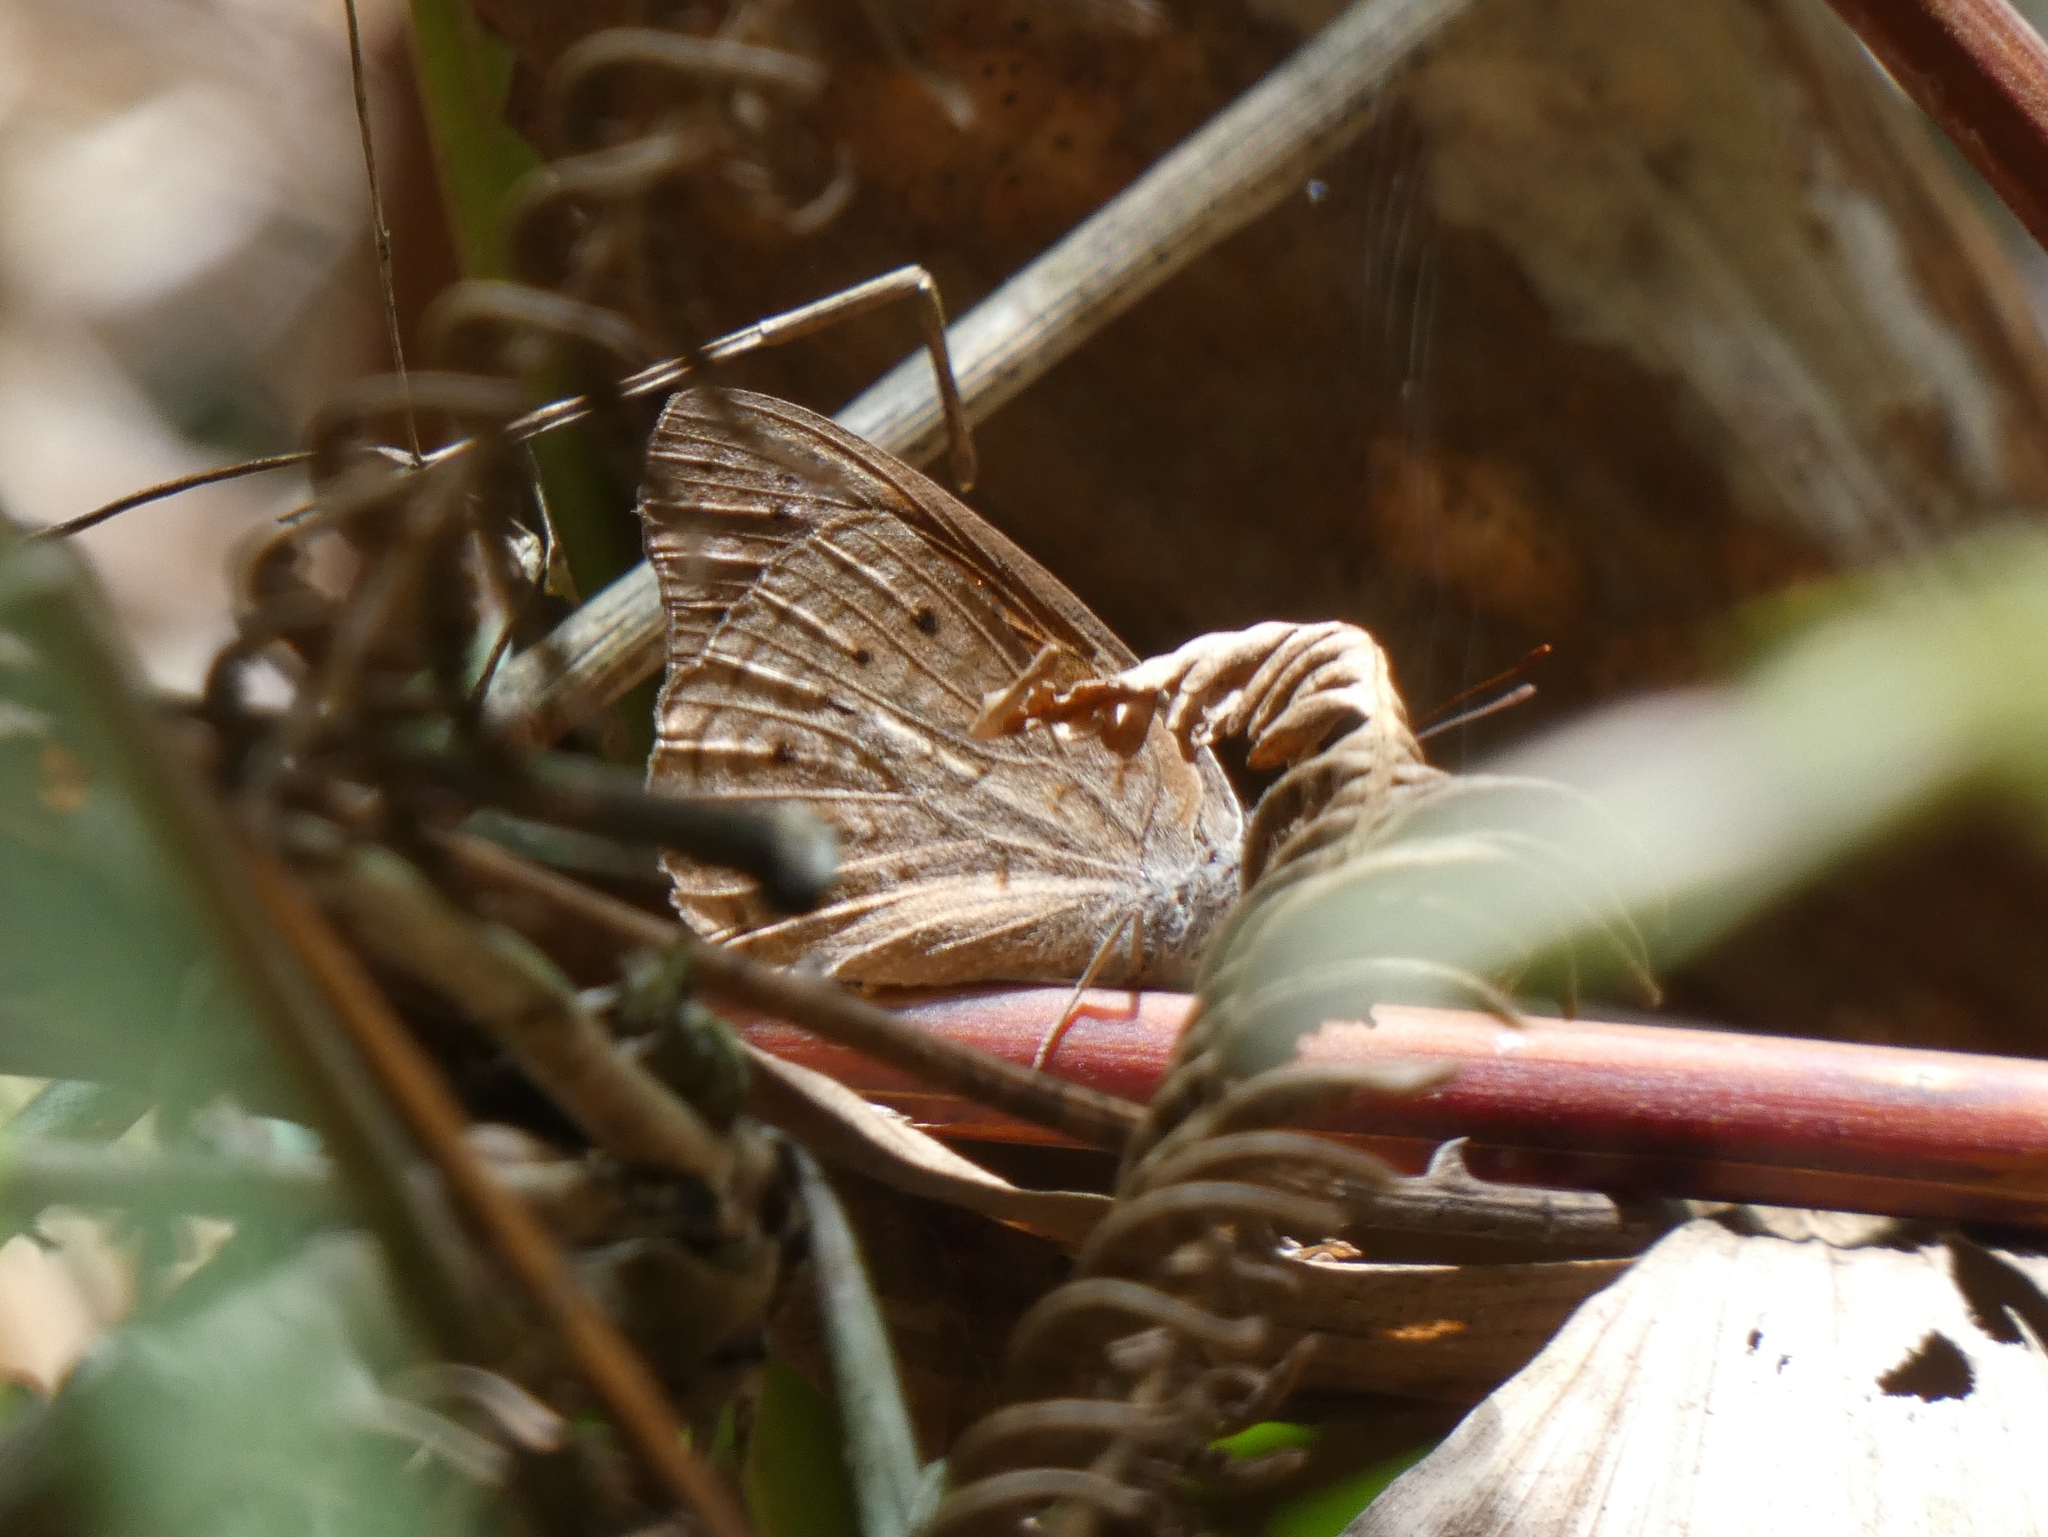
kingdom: Animalia
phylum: Arthropoda
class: Insecta
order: Lepidoptera
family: Nymphalidae
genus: Asterope
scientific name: Asterope occidentalium
